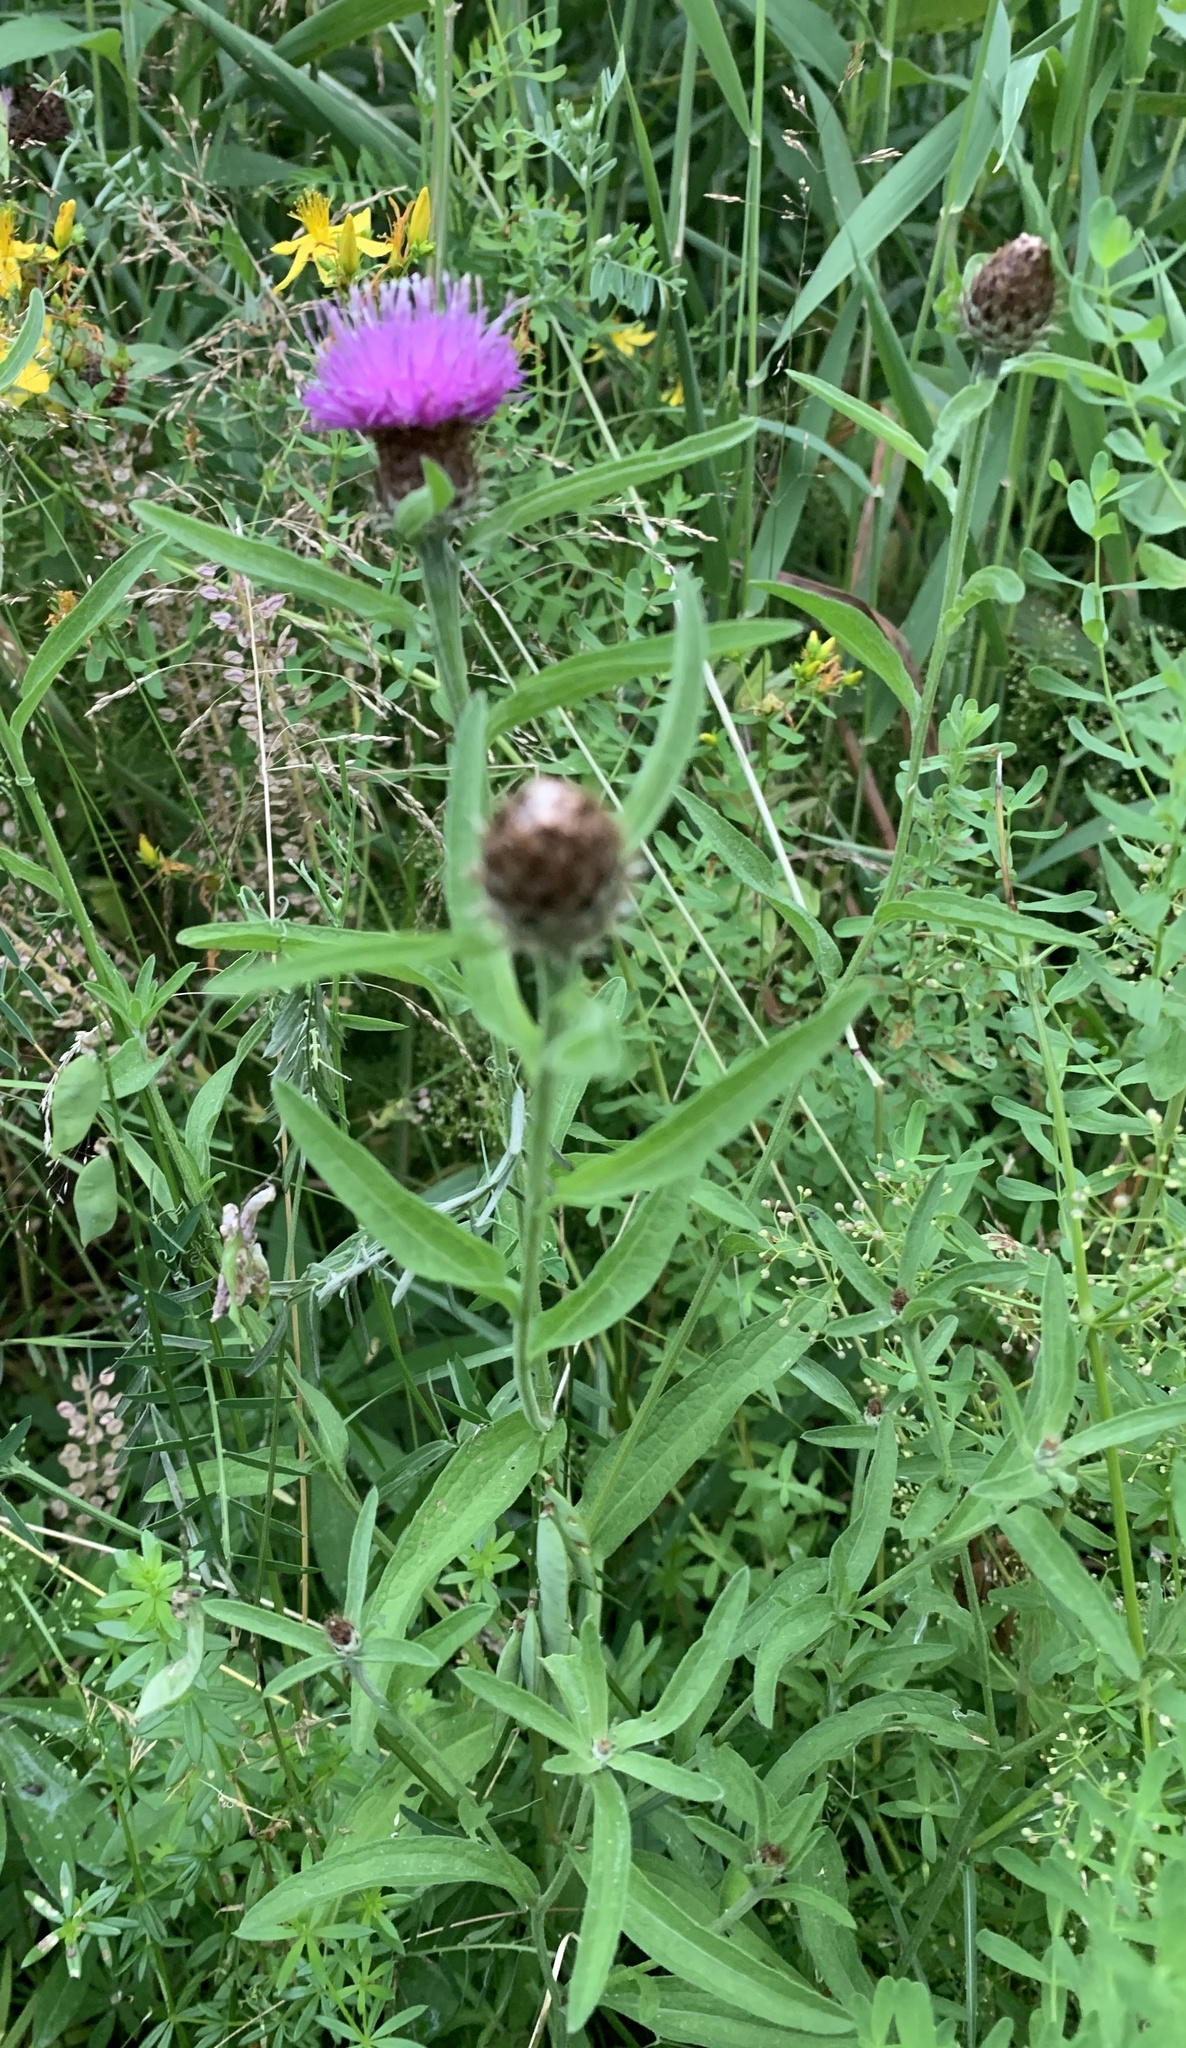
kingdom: Plantae
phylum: Tracheophyta
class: Magnoliopsida
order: Asterales
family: Asteraceae
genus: Centaurea
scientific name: Centaurea nigra
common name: Lesser knapweed
